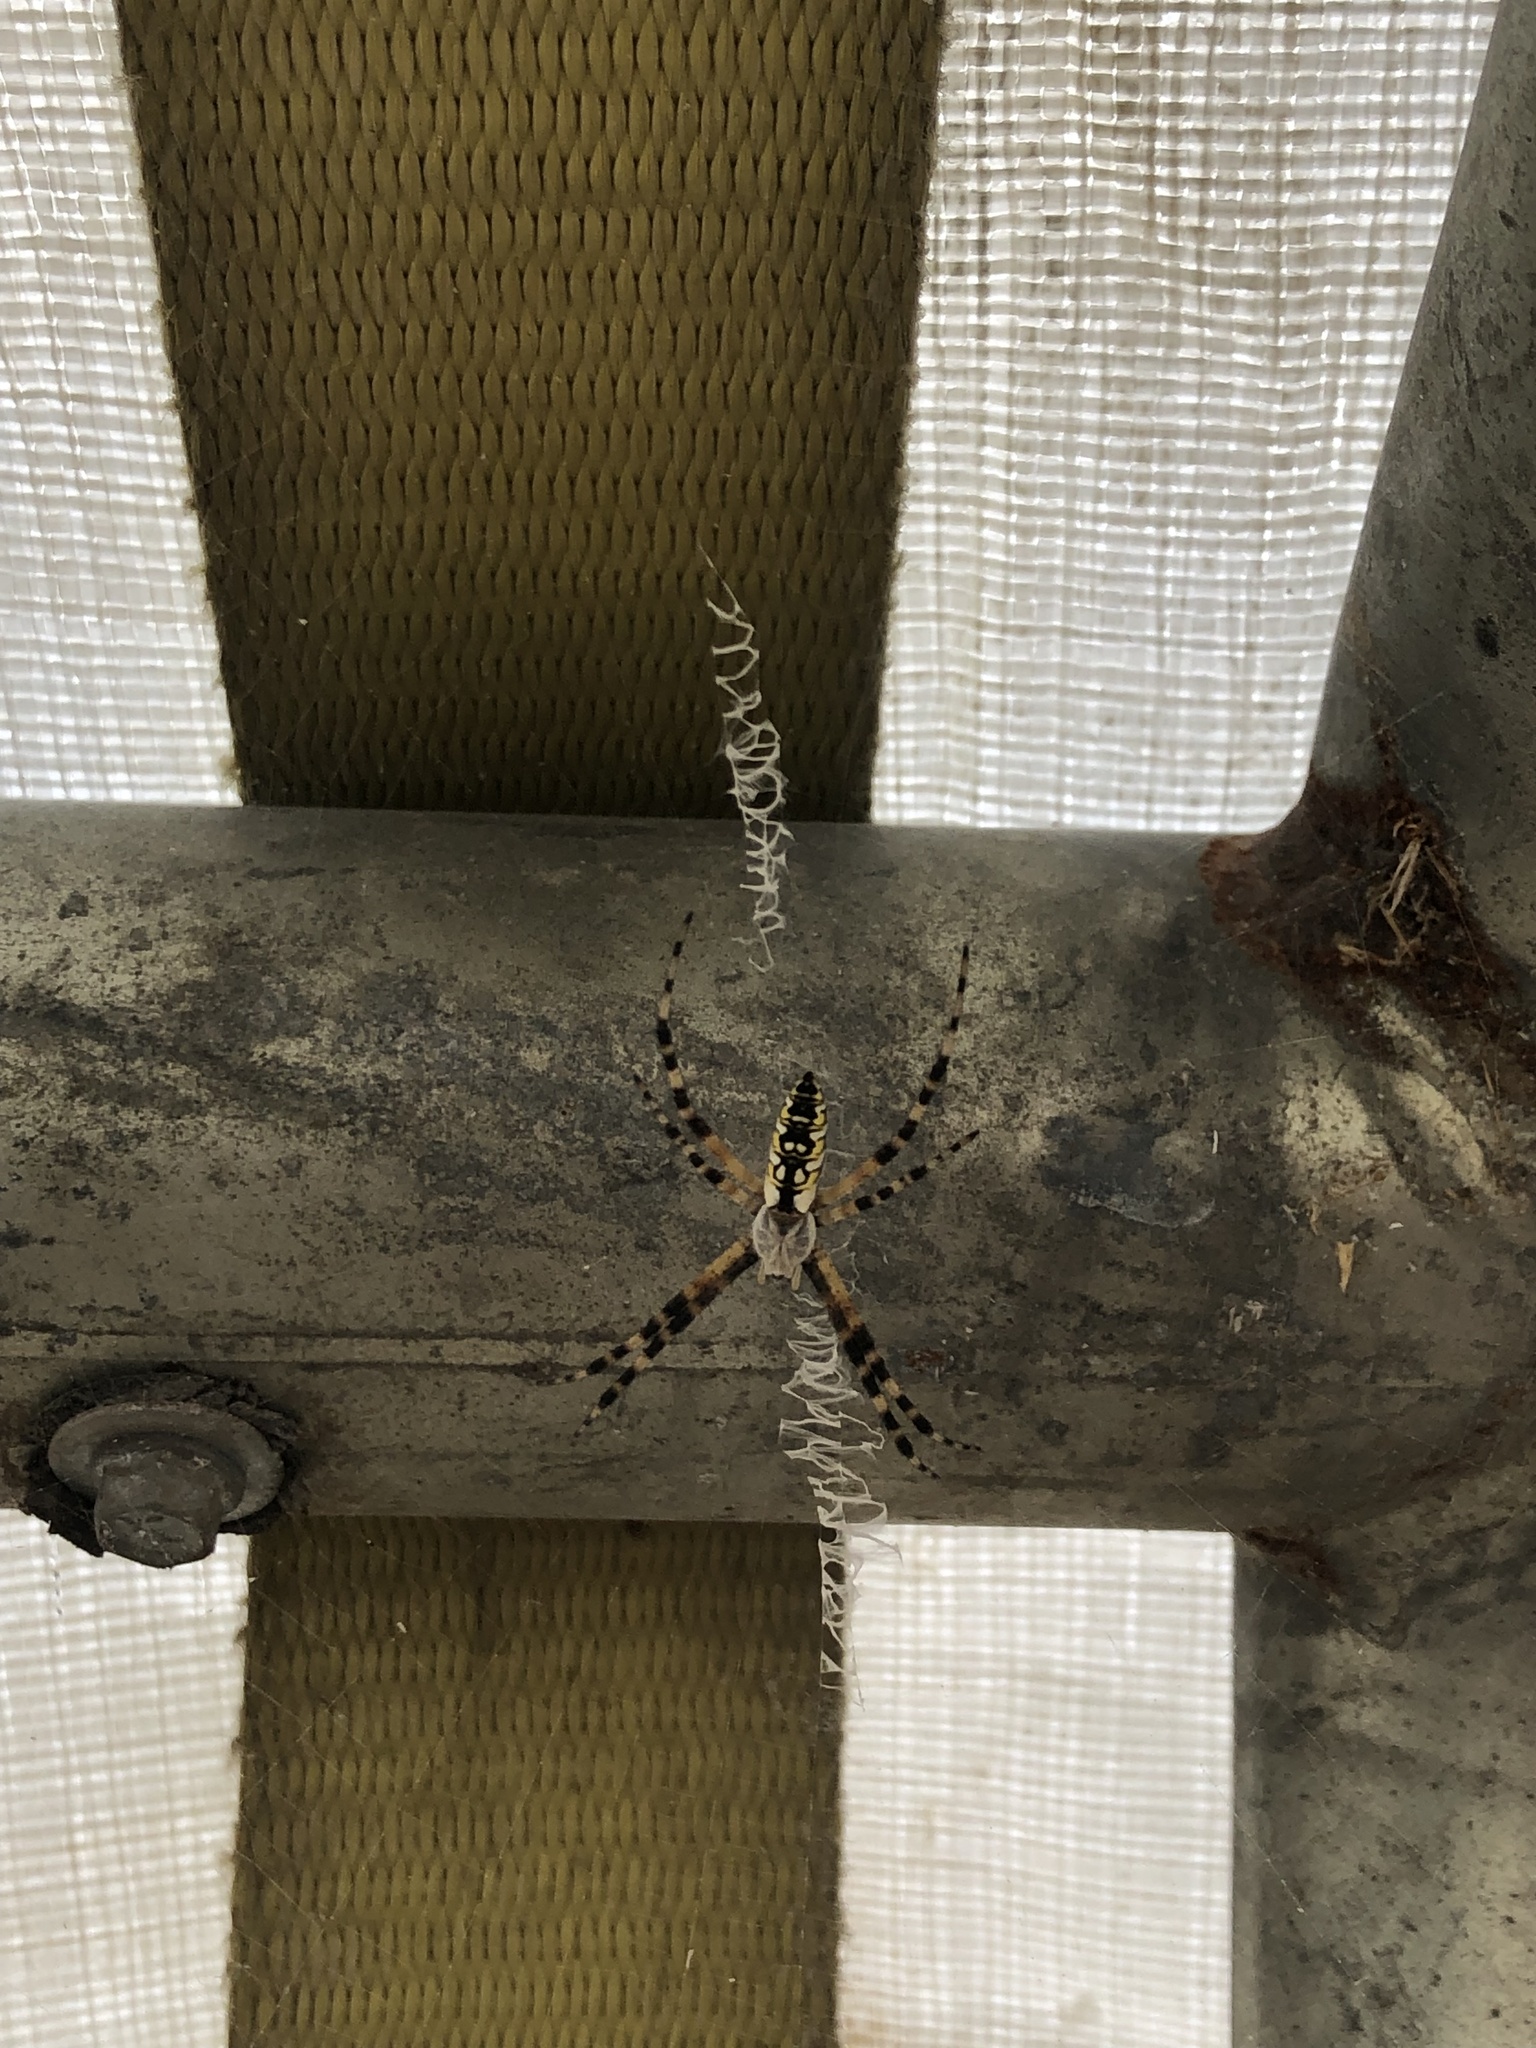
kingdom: Animalia
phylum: Arthropoda
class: Arachnida
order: Araneae
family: Araneidae
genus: Argiope
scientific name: Argiope aurantia
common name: Orb weavers
